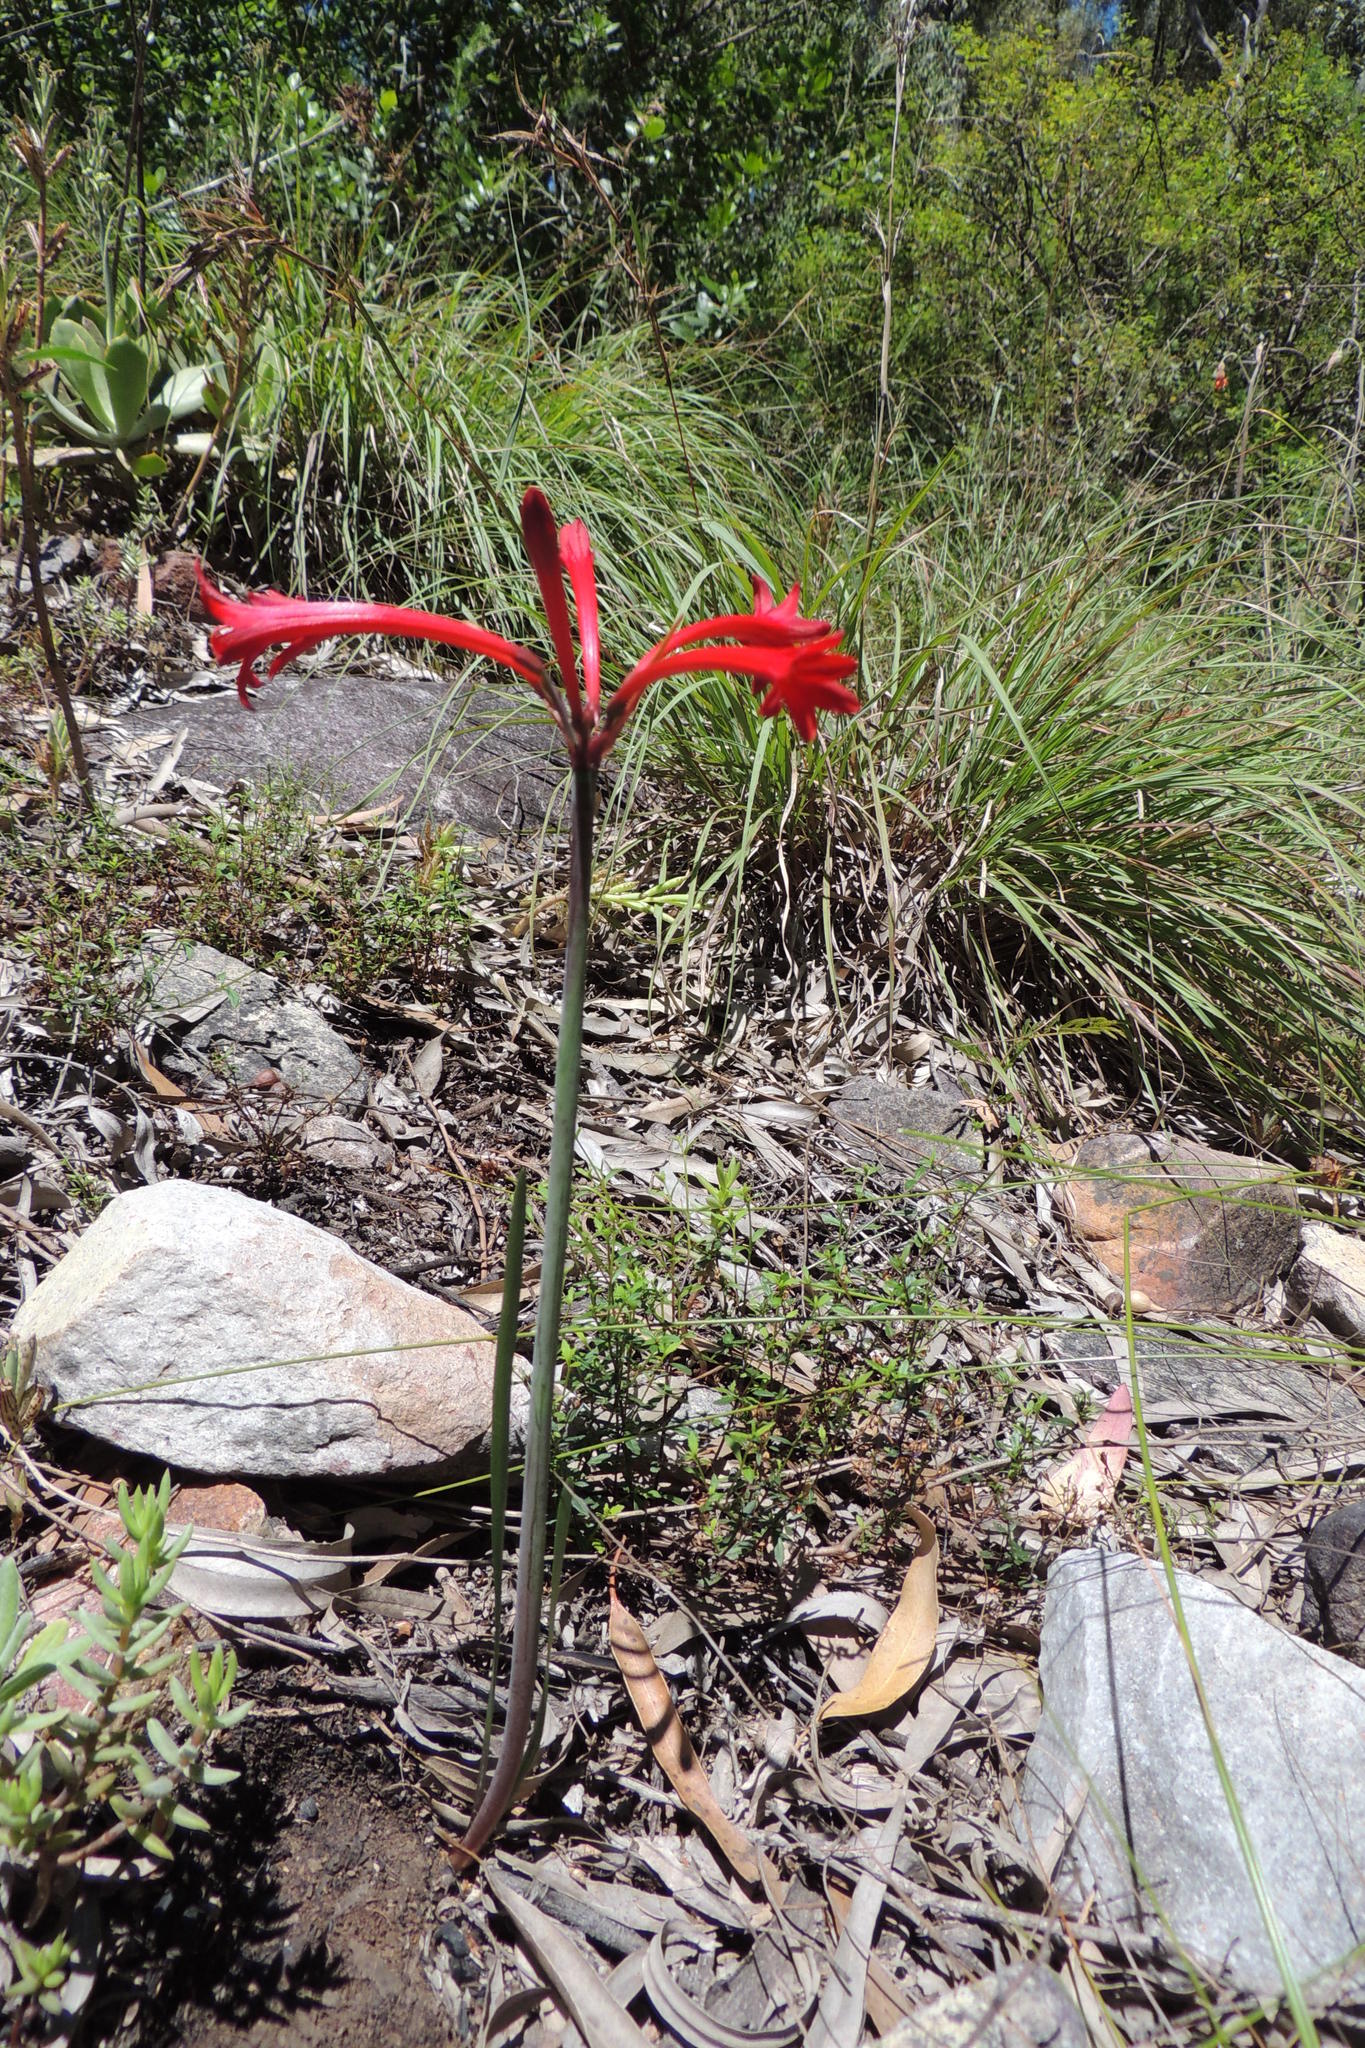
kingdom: Plantae
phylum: Tracheophyta
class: Liliopsida
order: Asparagales
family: Amaryllidaceae
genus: Cyrtanthus
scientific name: Cyrtanthus odorus
